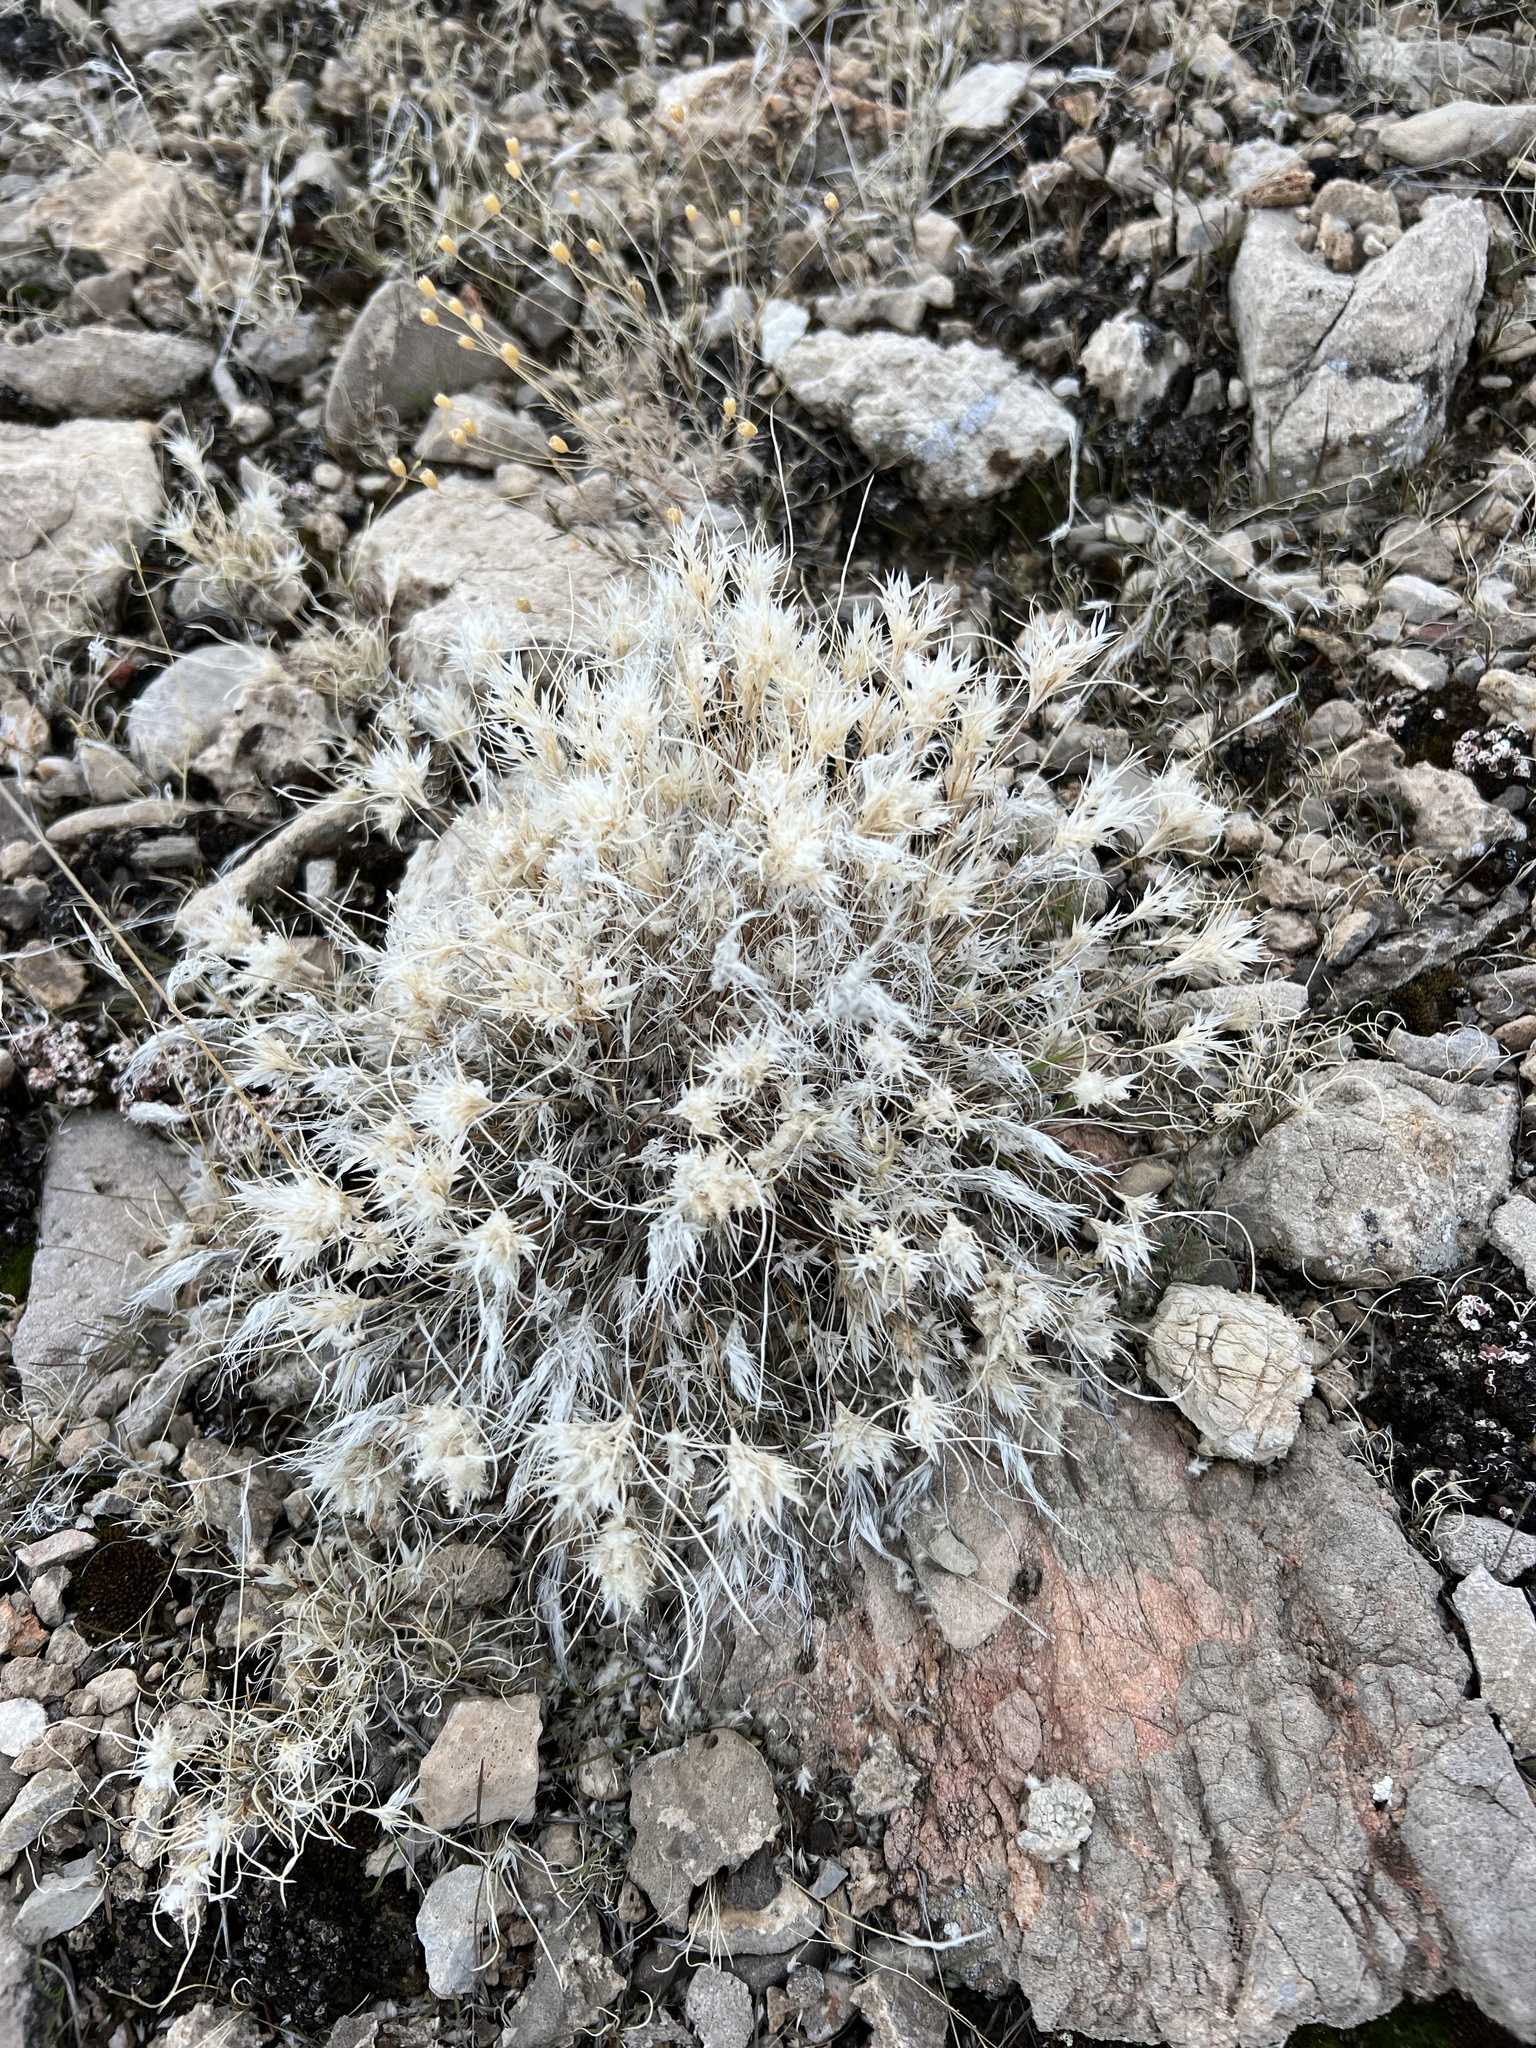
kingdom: Plantae
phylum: Tracheophyta
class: Liliopsida
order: Poales
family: Poaceae
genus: Dasyochloa
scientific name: Dasyochloa pulchella
